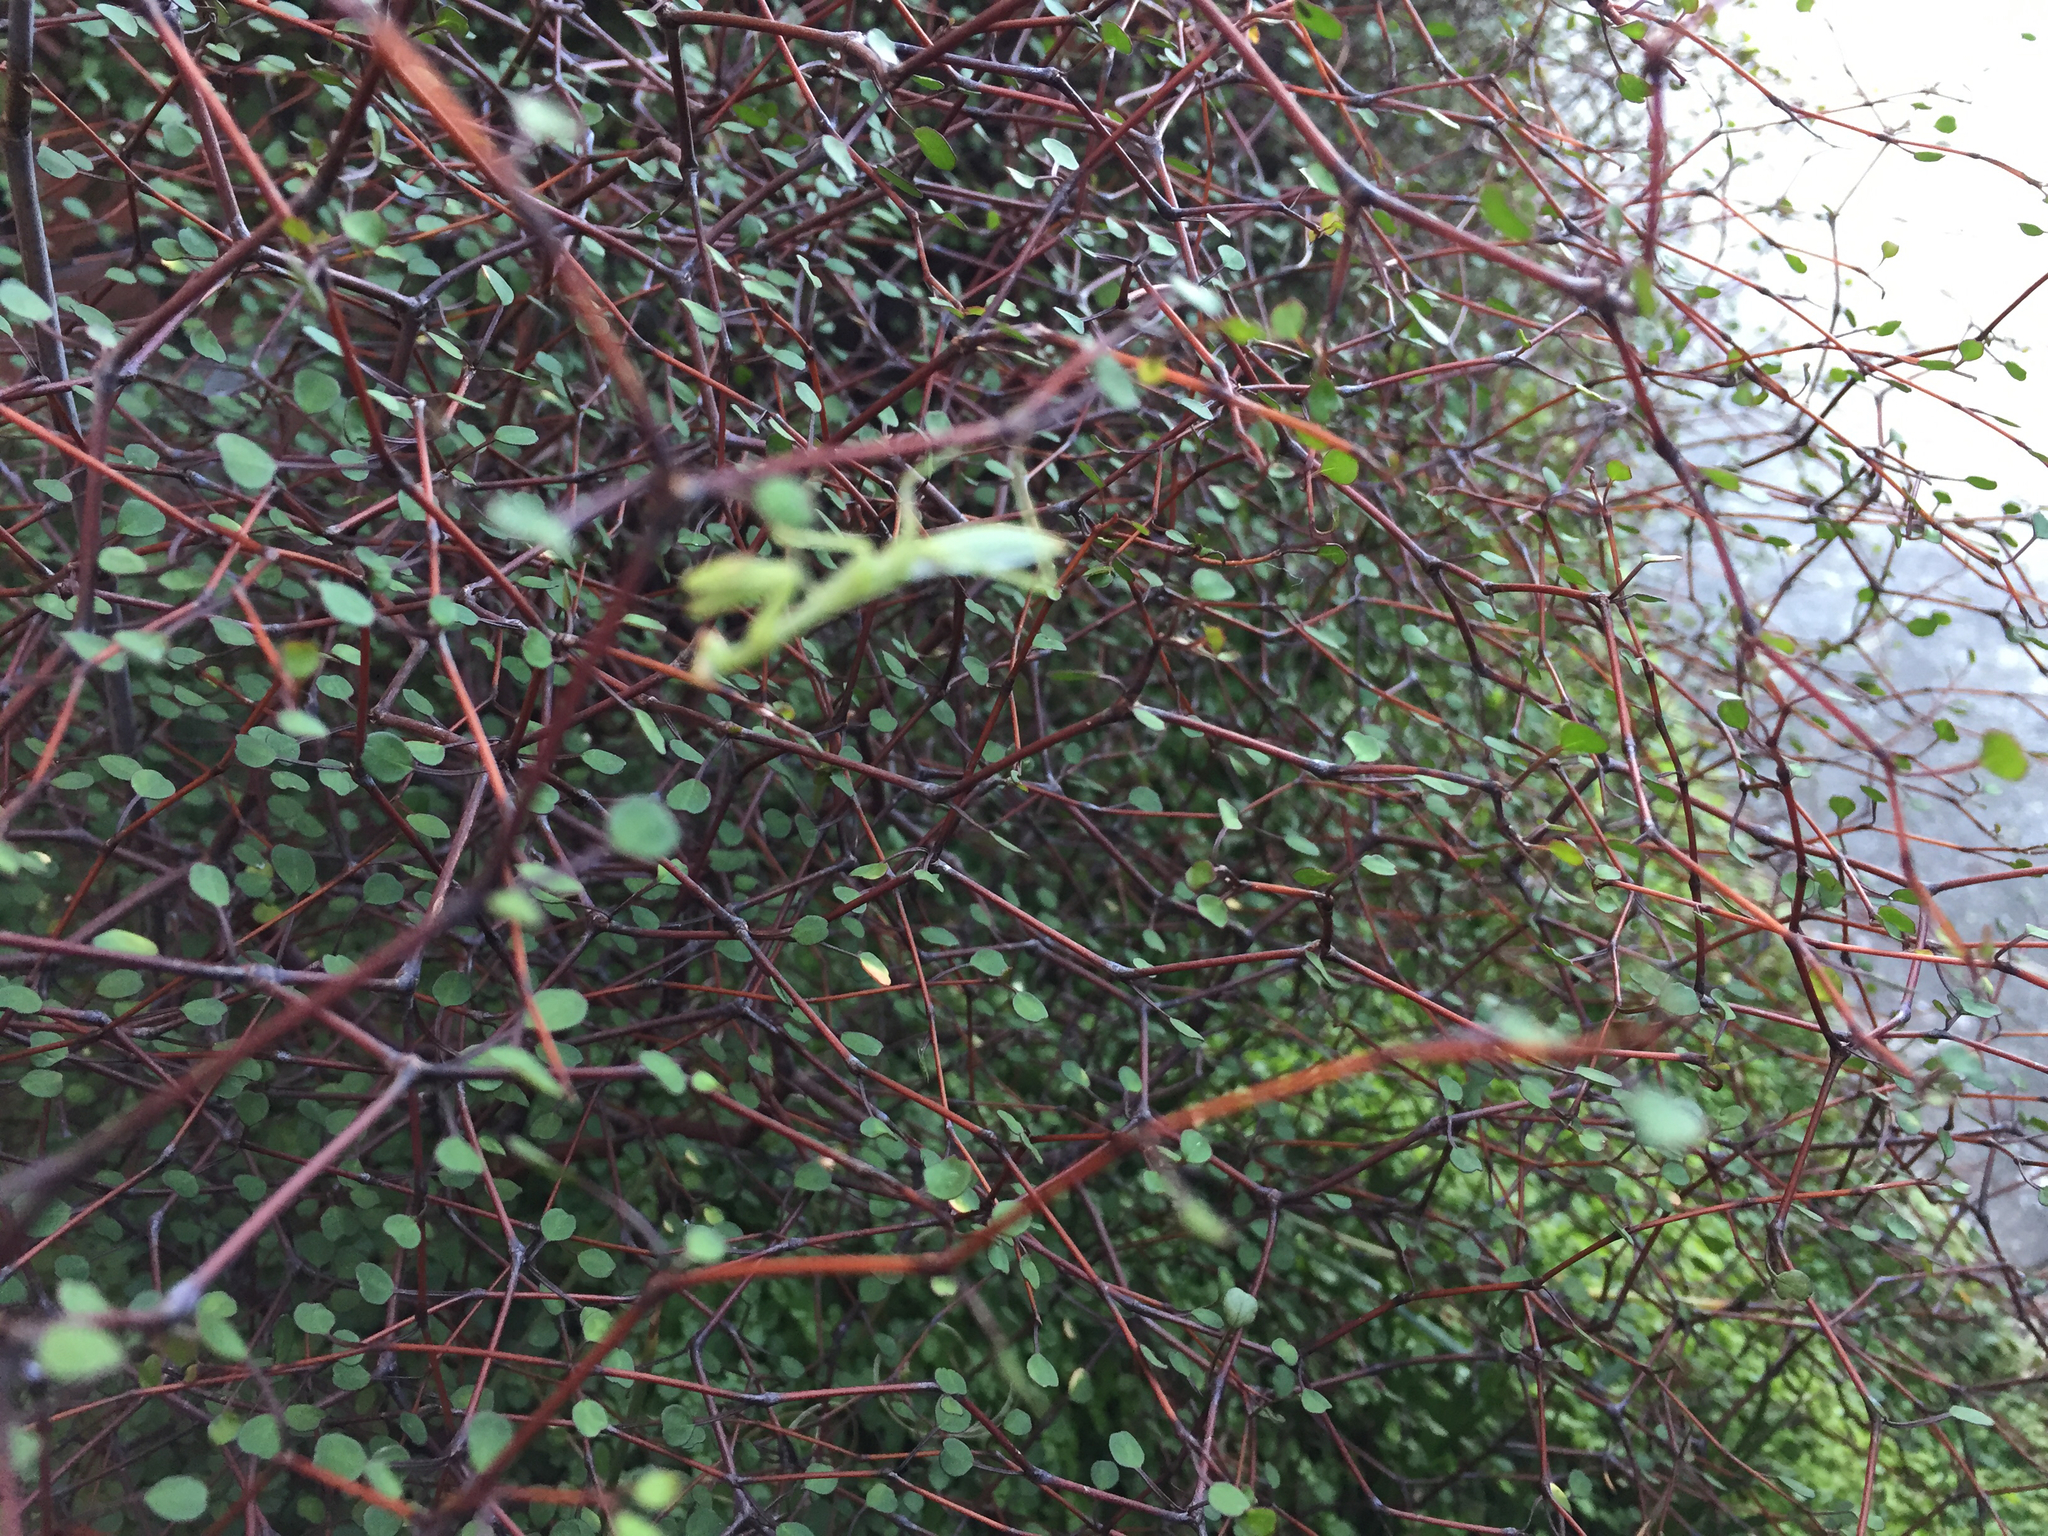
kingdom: Animalia
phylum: Arthropoda
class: Insecta
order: Mantodea
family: Miomantidae
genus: Miomantis
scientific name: Miomantis caffra
